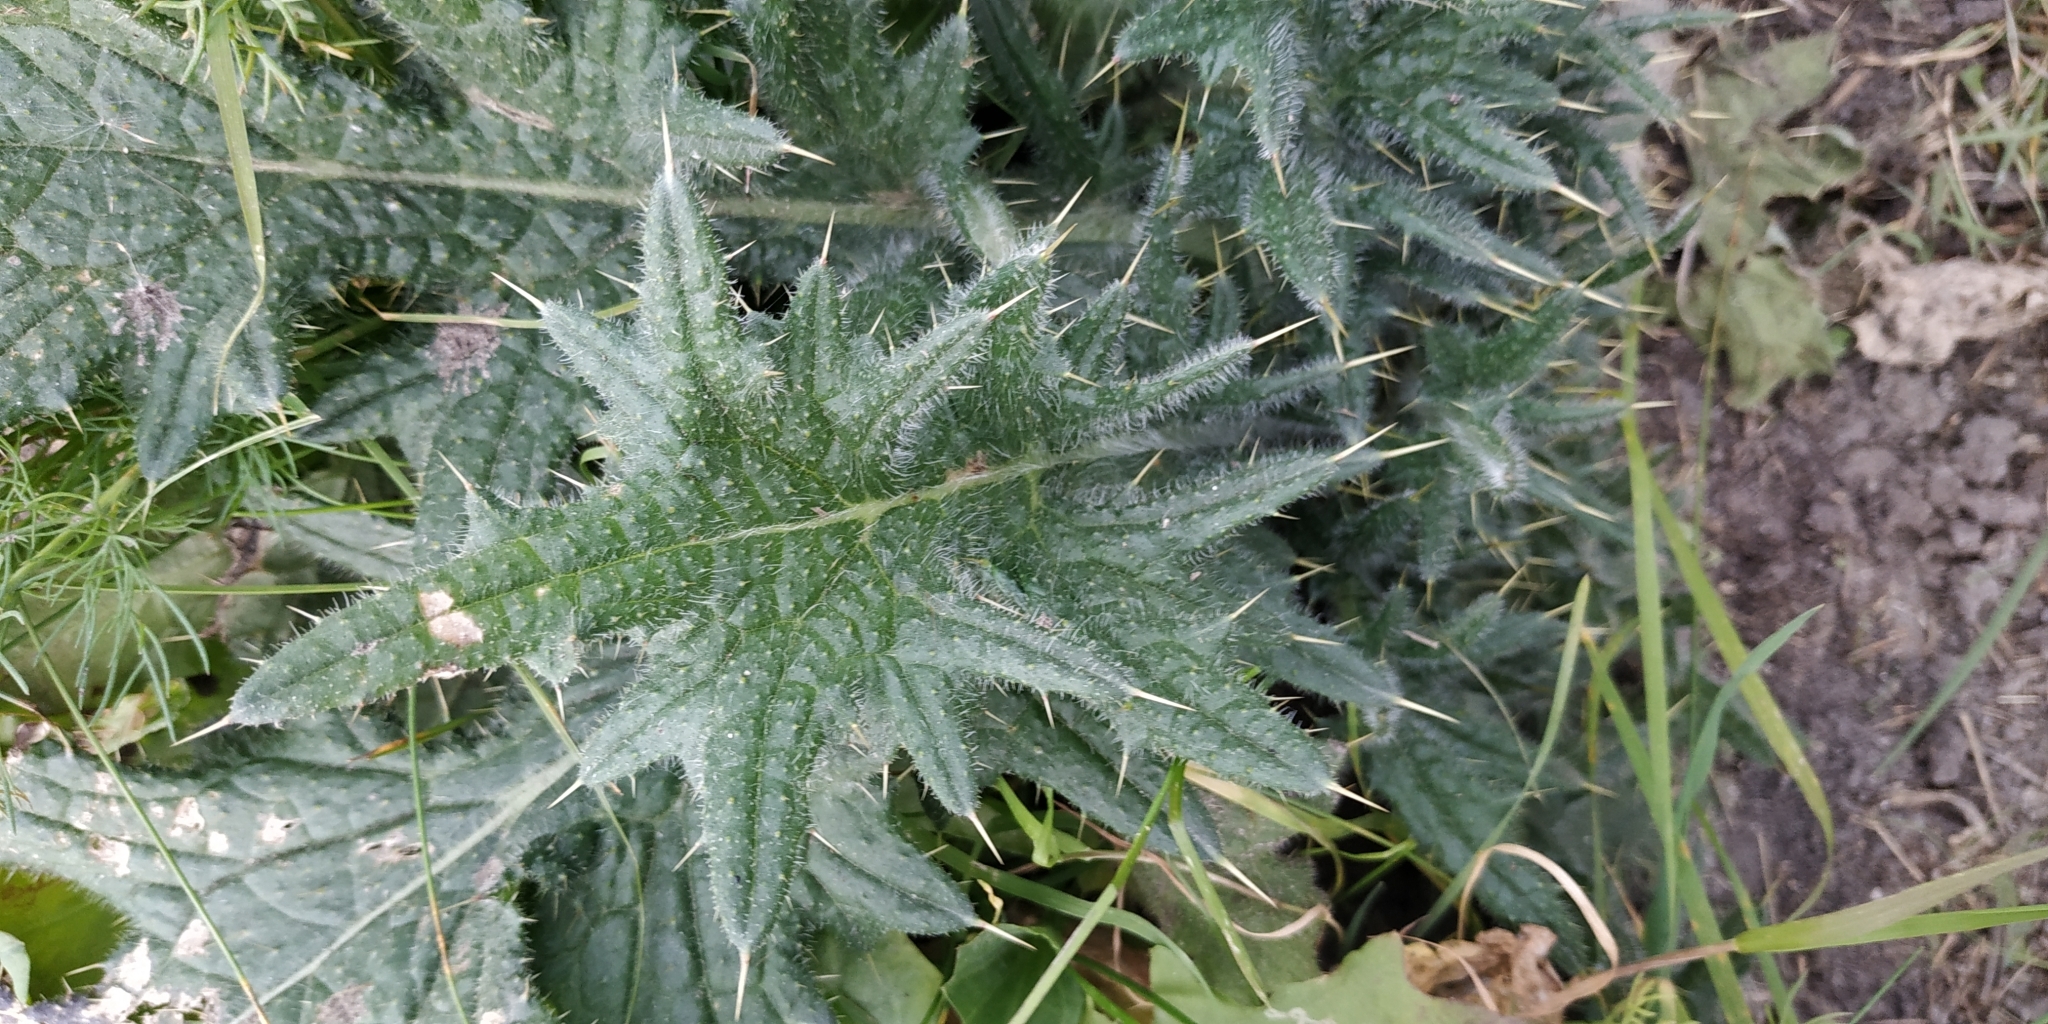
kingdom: Plantae
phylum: Tracheophyta
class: Magnoliopsida
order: Asterales
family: Asteraceae
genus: Cirsium
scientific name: Cirsium vulgare
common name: Bull thistle
